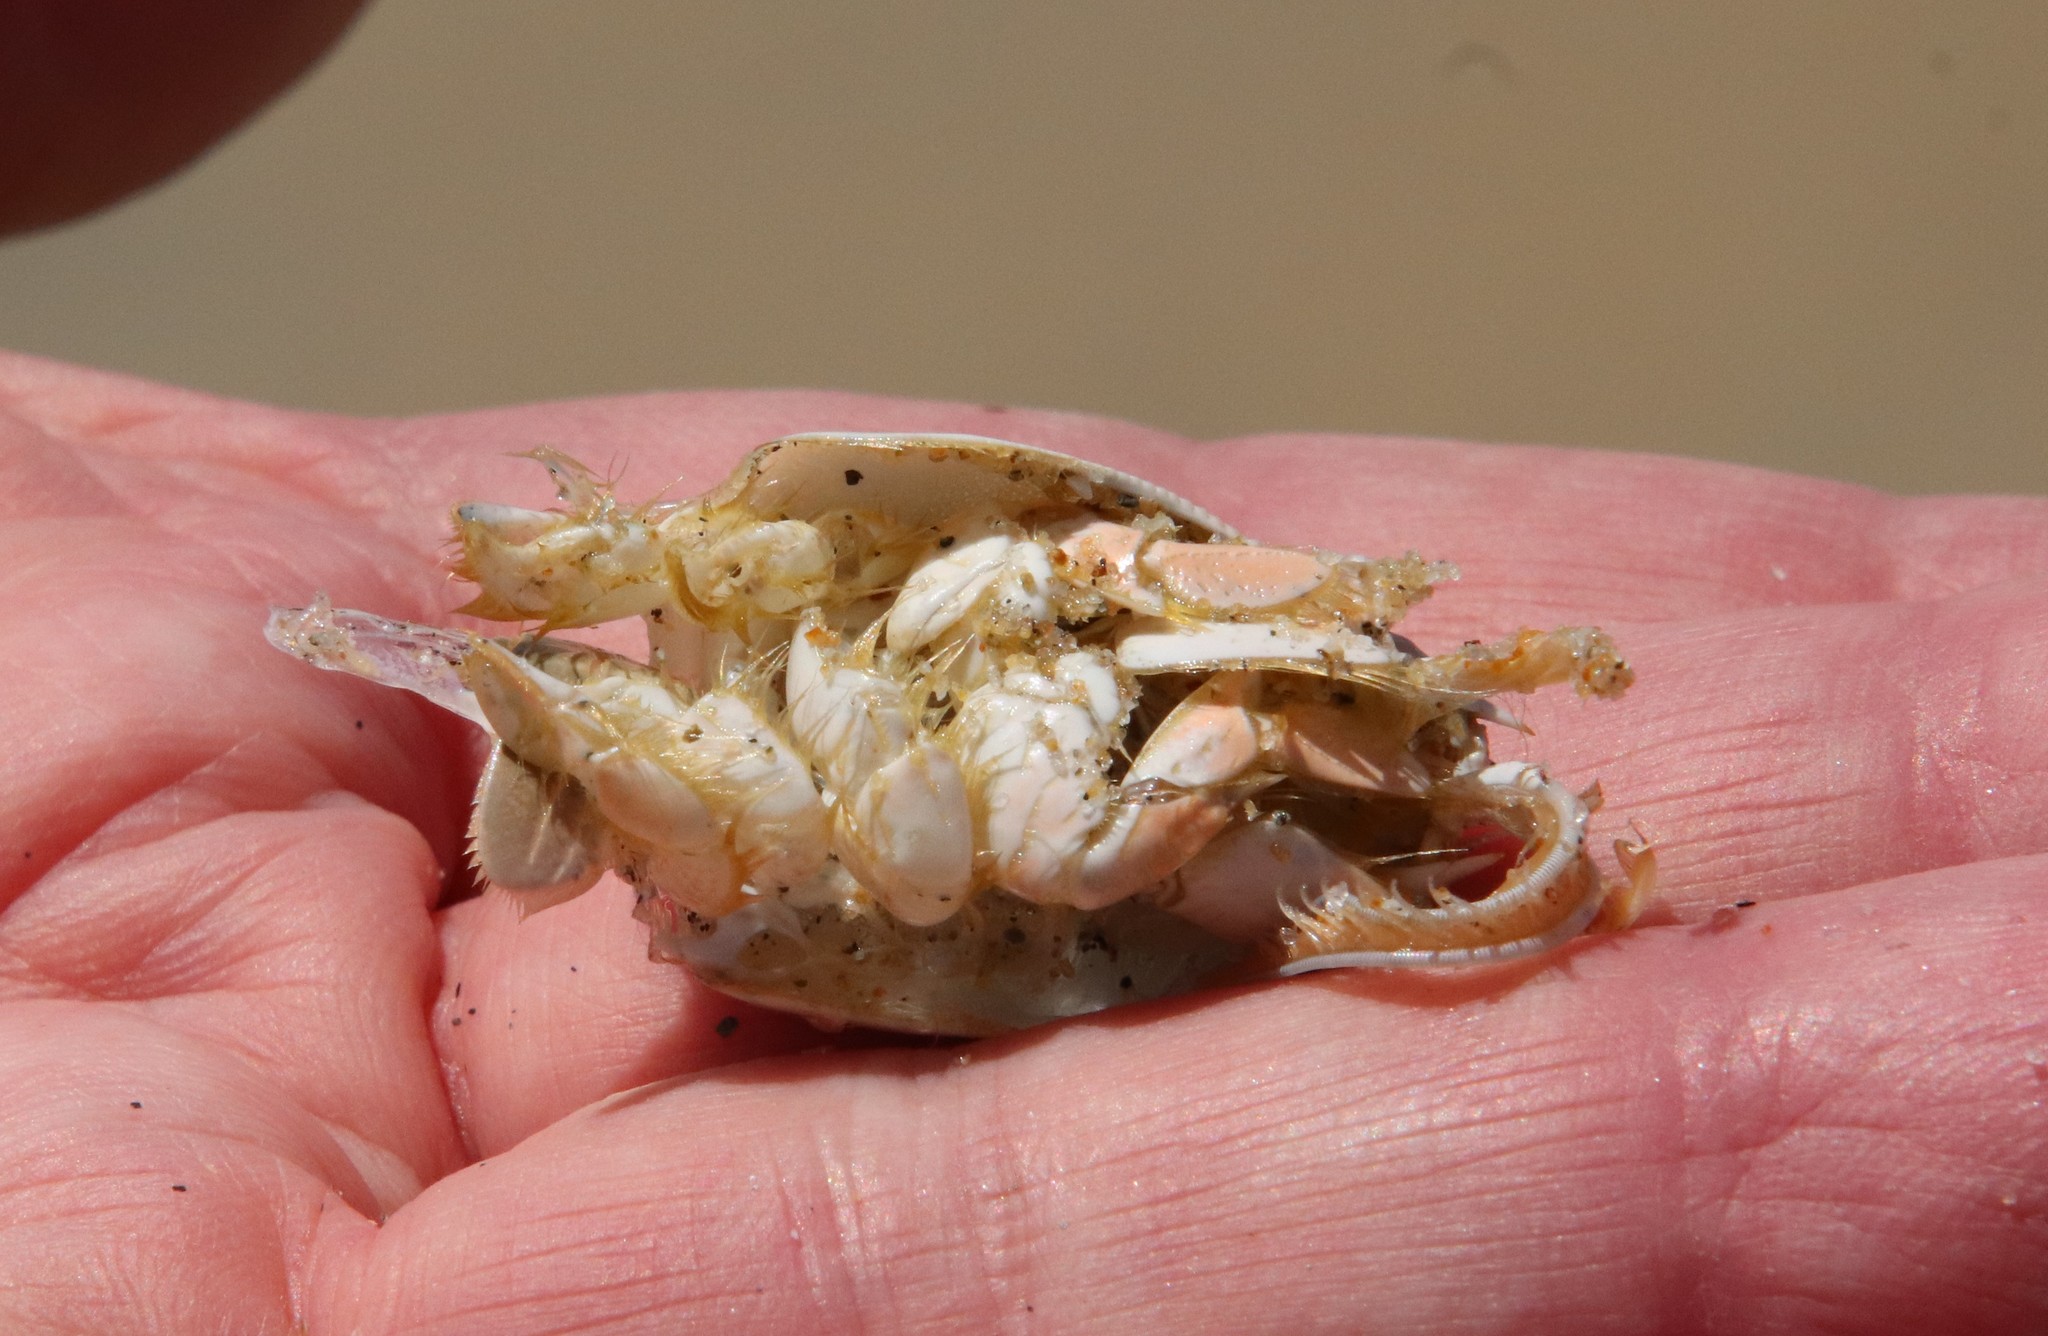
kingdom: Animalia
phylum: Arthropoda
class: Malacostraca
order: Decapoda
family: Hippidae
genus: Emerita
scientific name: Emerita analoga
